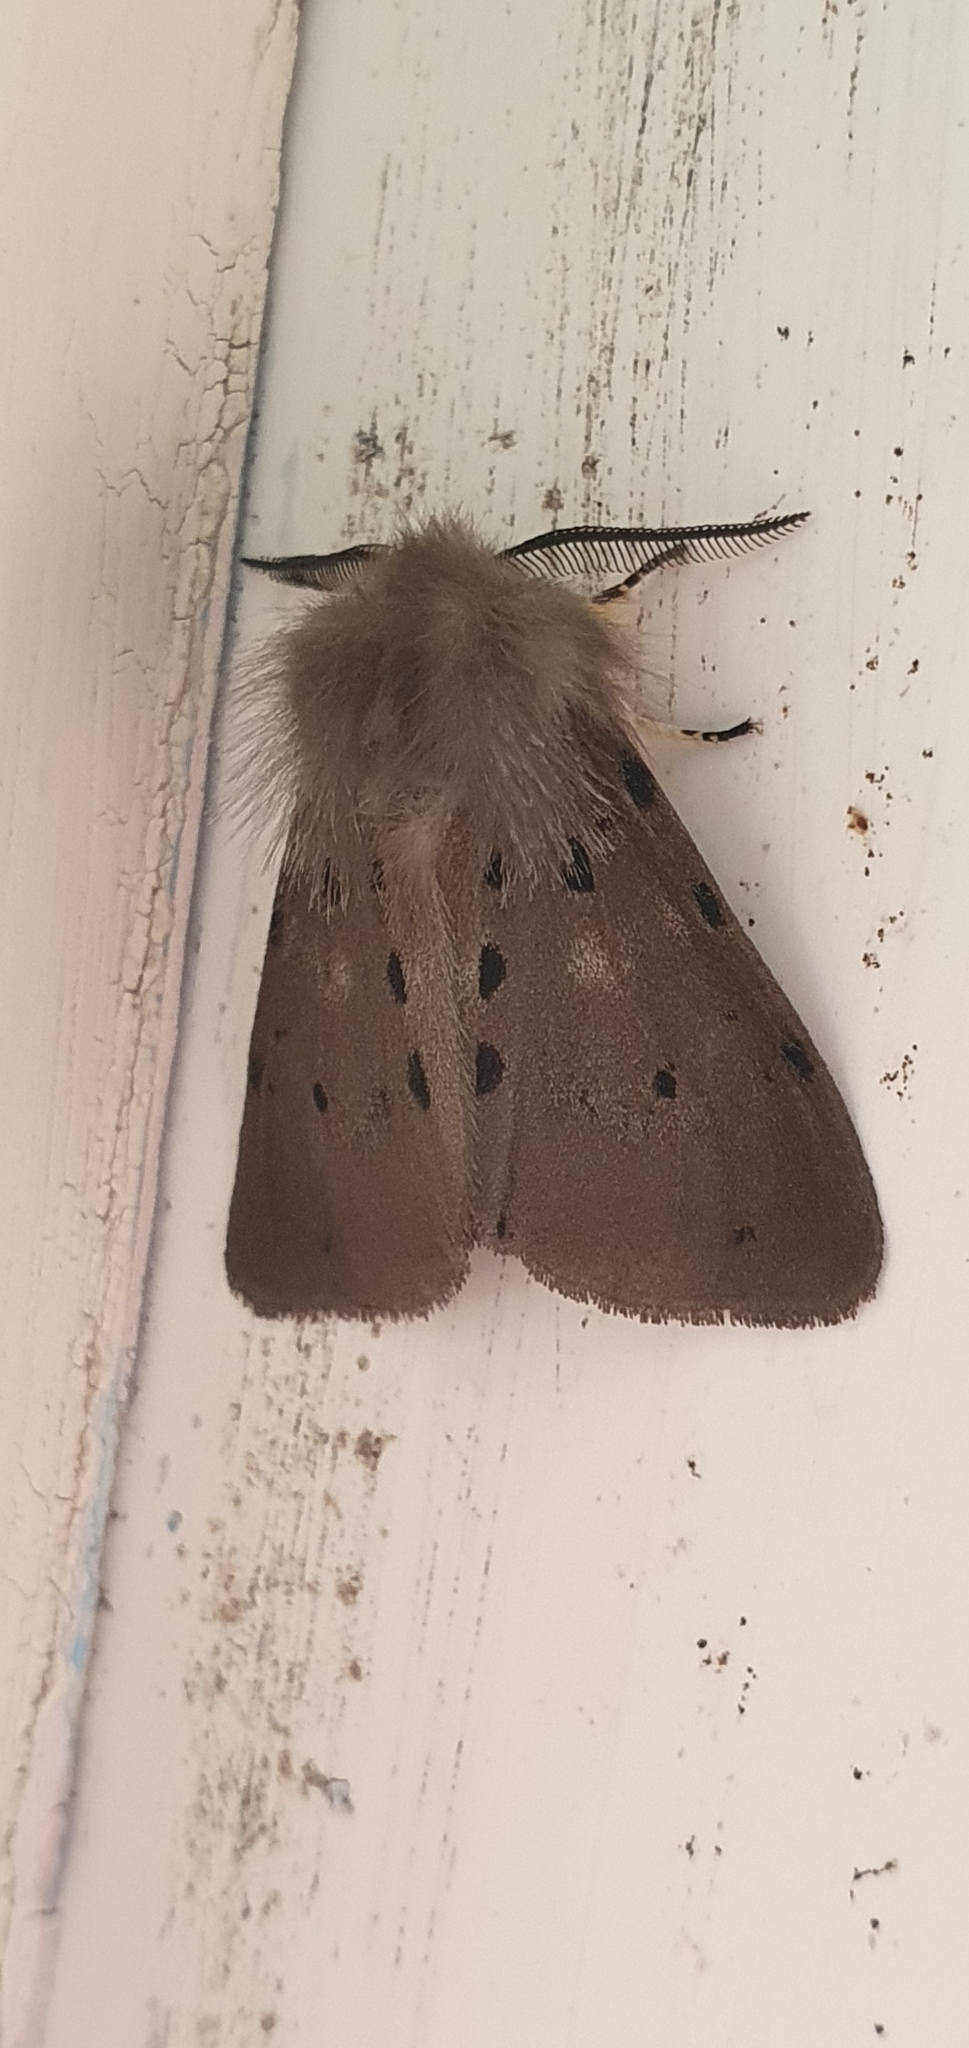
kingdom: Animalia
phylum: Arthropoda
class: Insecta
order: Lepidoptera
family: Erebidae
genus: Diaphora
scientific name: Diaphora mendica
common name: Muslin moth
